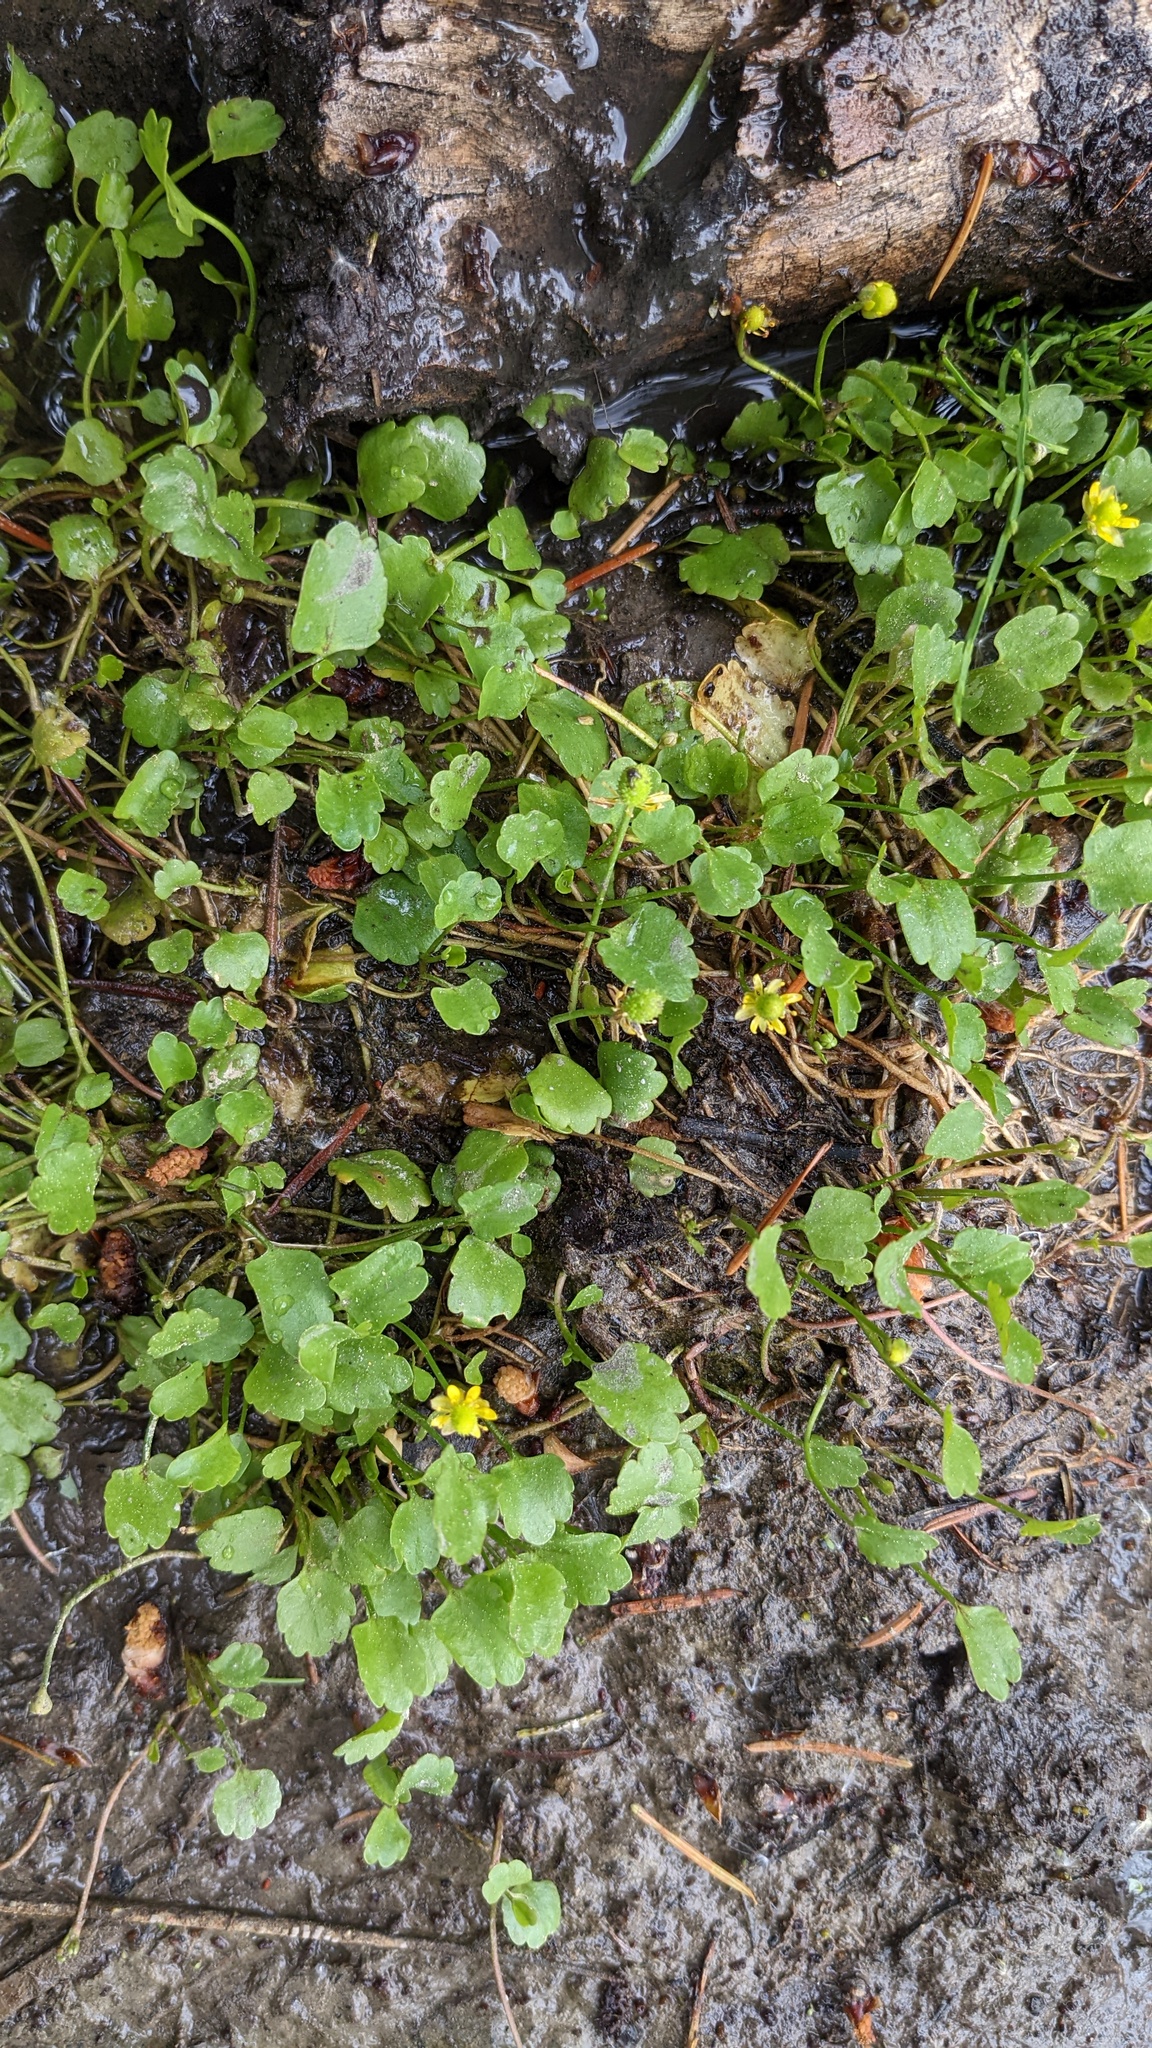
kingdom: Plantae
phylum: Tracheophyta
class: Magnoliopsida
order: Ranunculales
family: Ranunculaceae
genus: Halerpestes
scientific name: Halerpestes cymbalaria
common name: Seaside crowfoot
